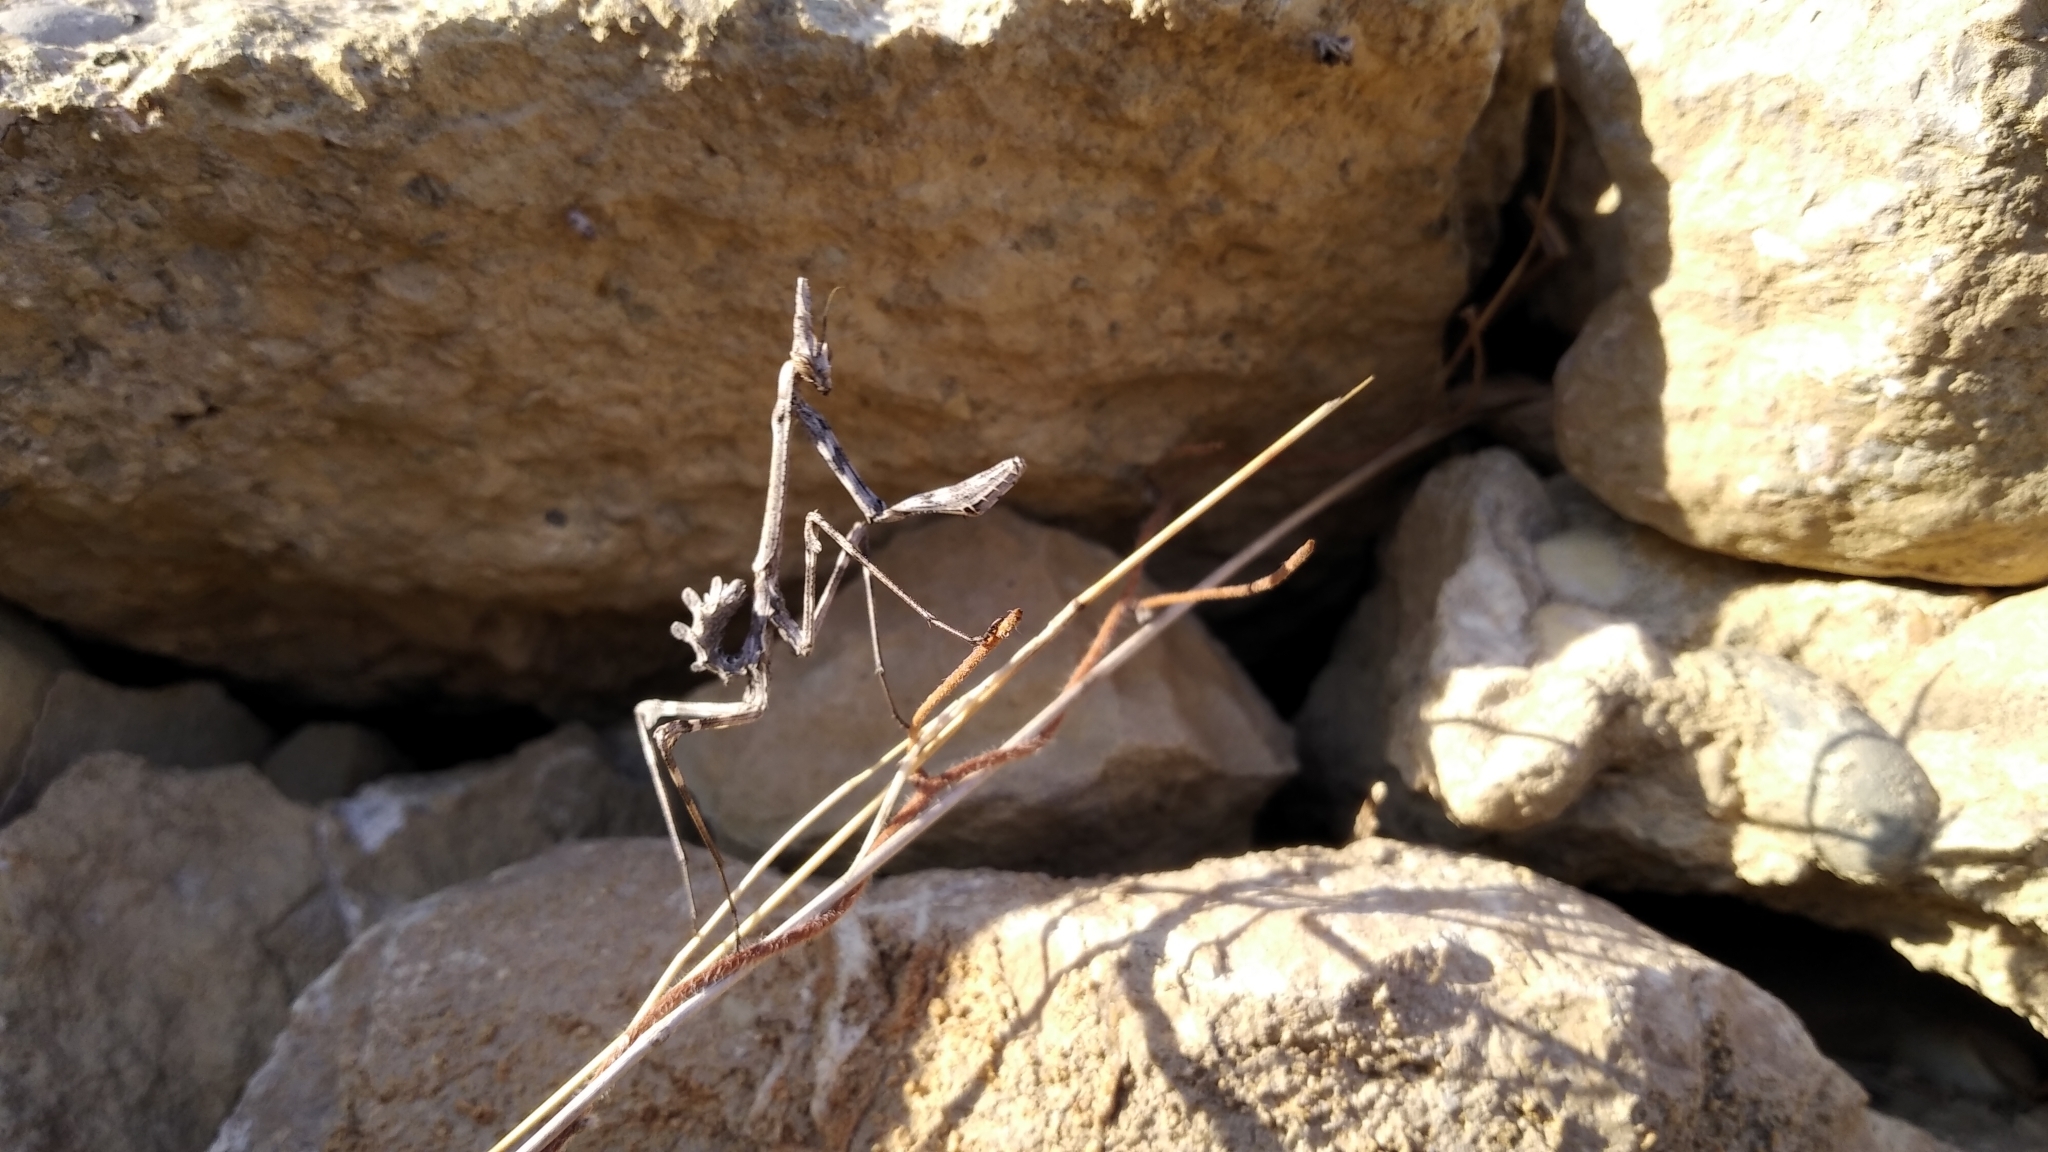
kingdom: Animalia
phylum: Arthropoda
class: Insecta
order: Mantodea
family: Empusidae
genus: Empusa
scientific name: Empusa pennata
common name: Conehead mantis
